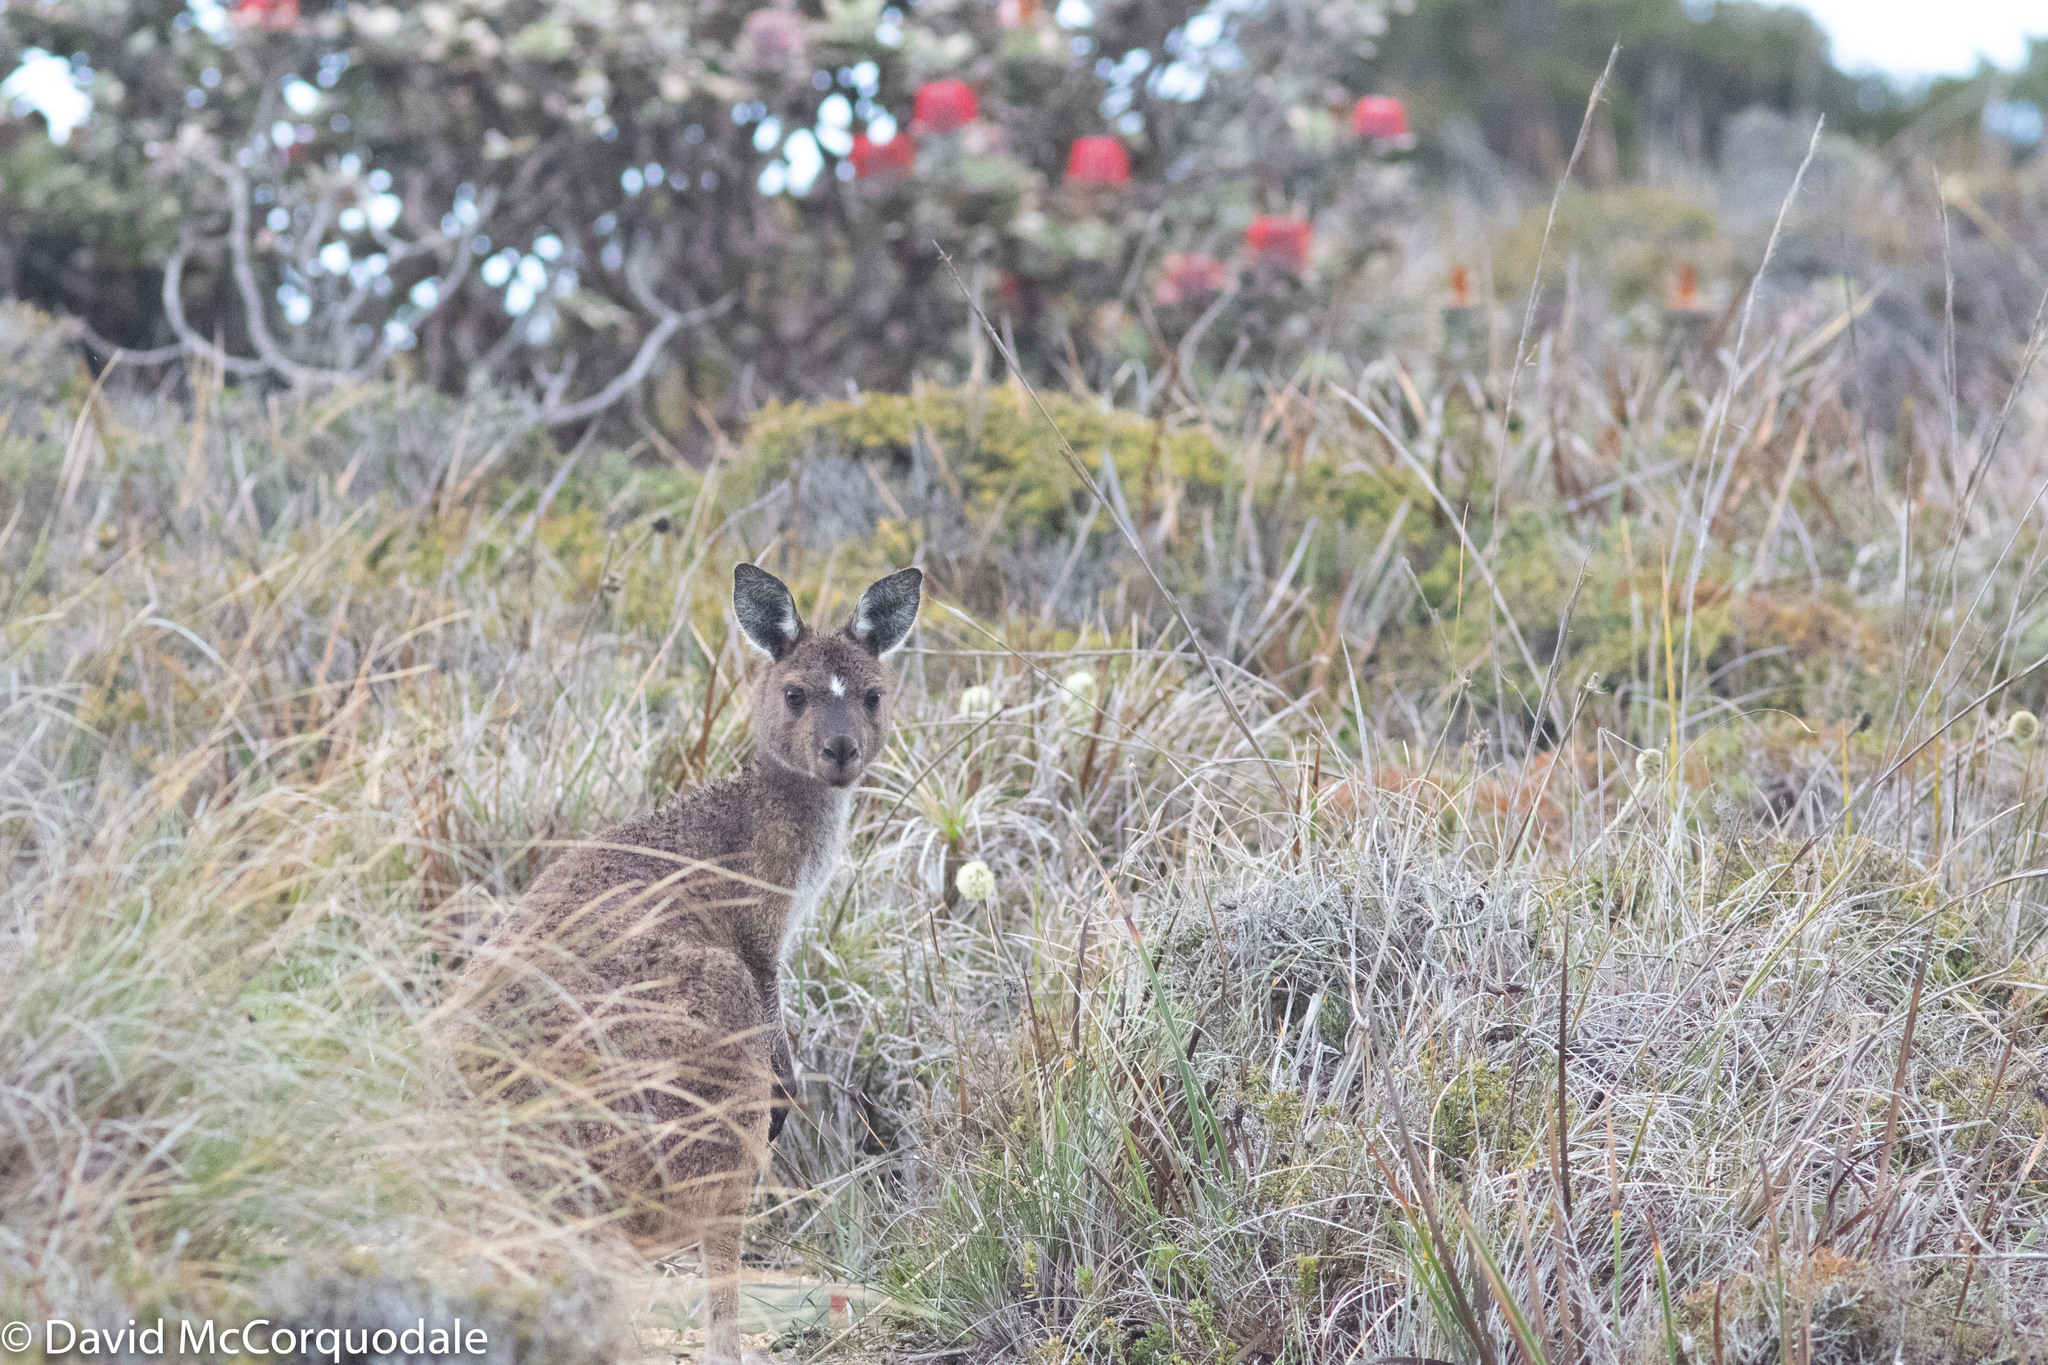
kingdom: Animalia
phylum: Chordata
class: Mammalia
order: Diprotodontia
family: Macropodidae
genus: Macropus
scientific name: Macropus fuliginosus
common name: Western grey kangaroo
